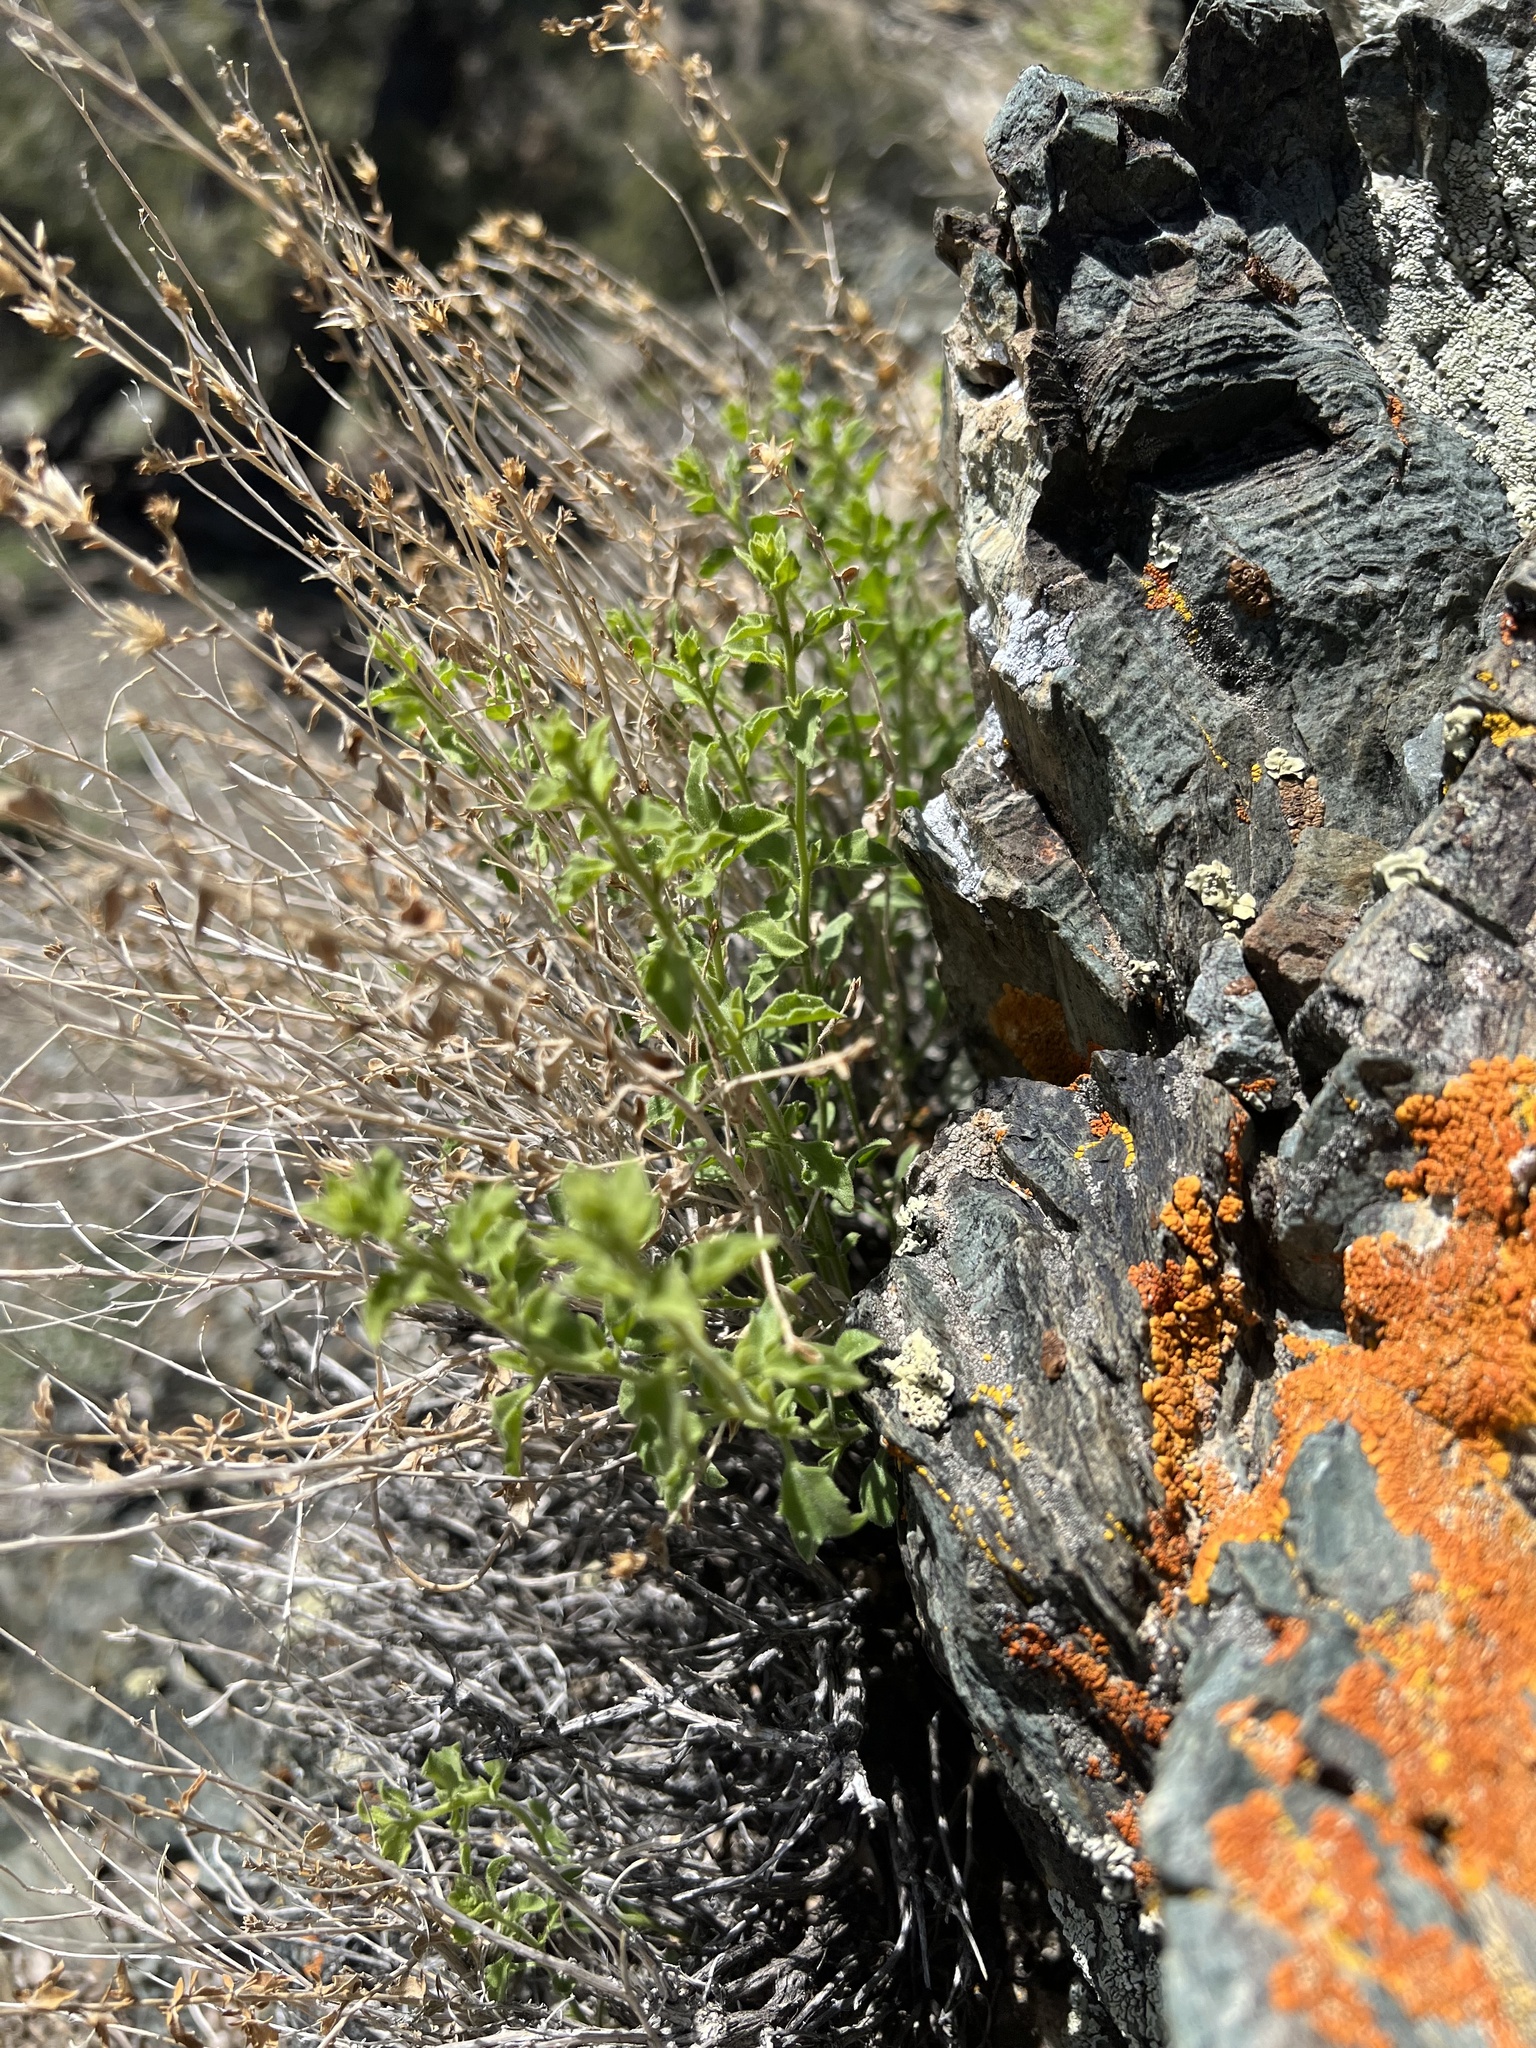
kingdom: Plantae
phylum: Tracheophyta
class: Magnoliopsida
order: Asterales
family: Asteraceae
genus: Brickellia
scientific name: Brickellia microphylla
